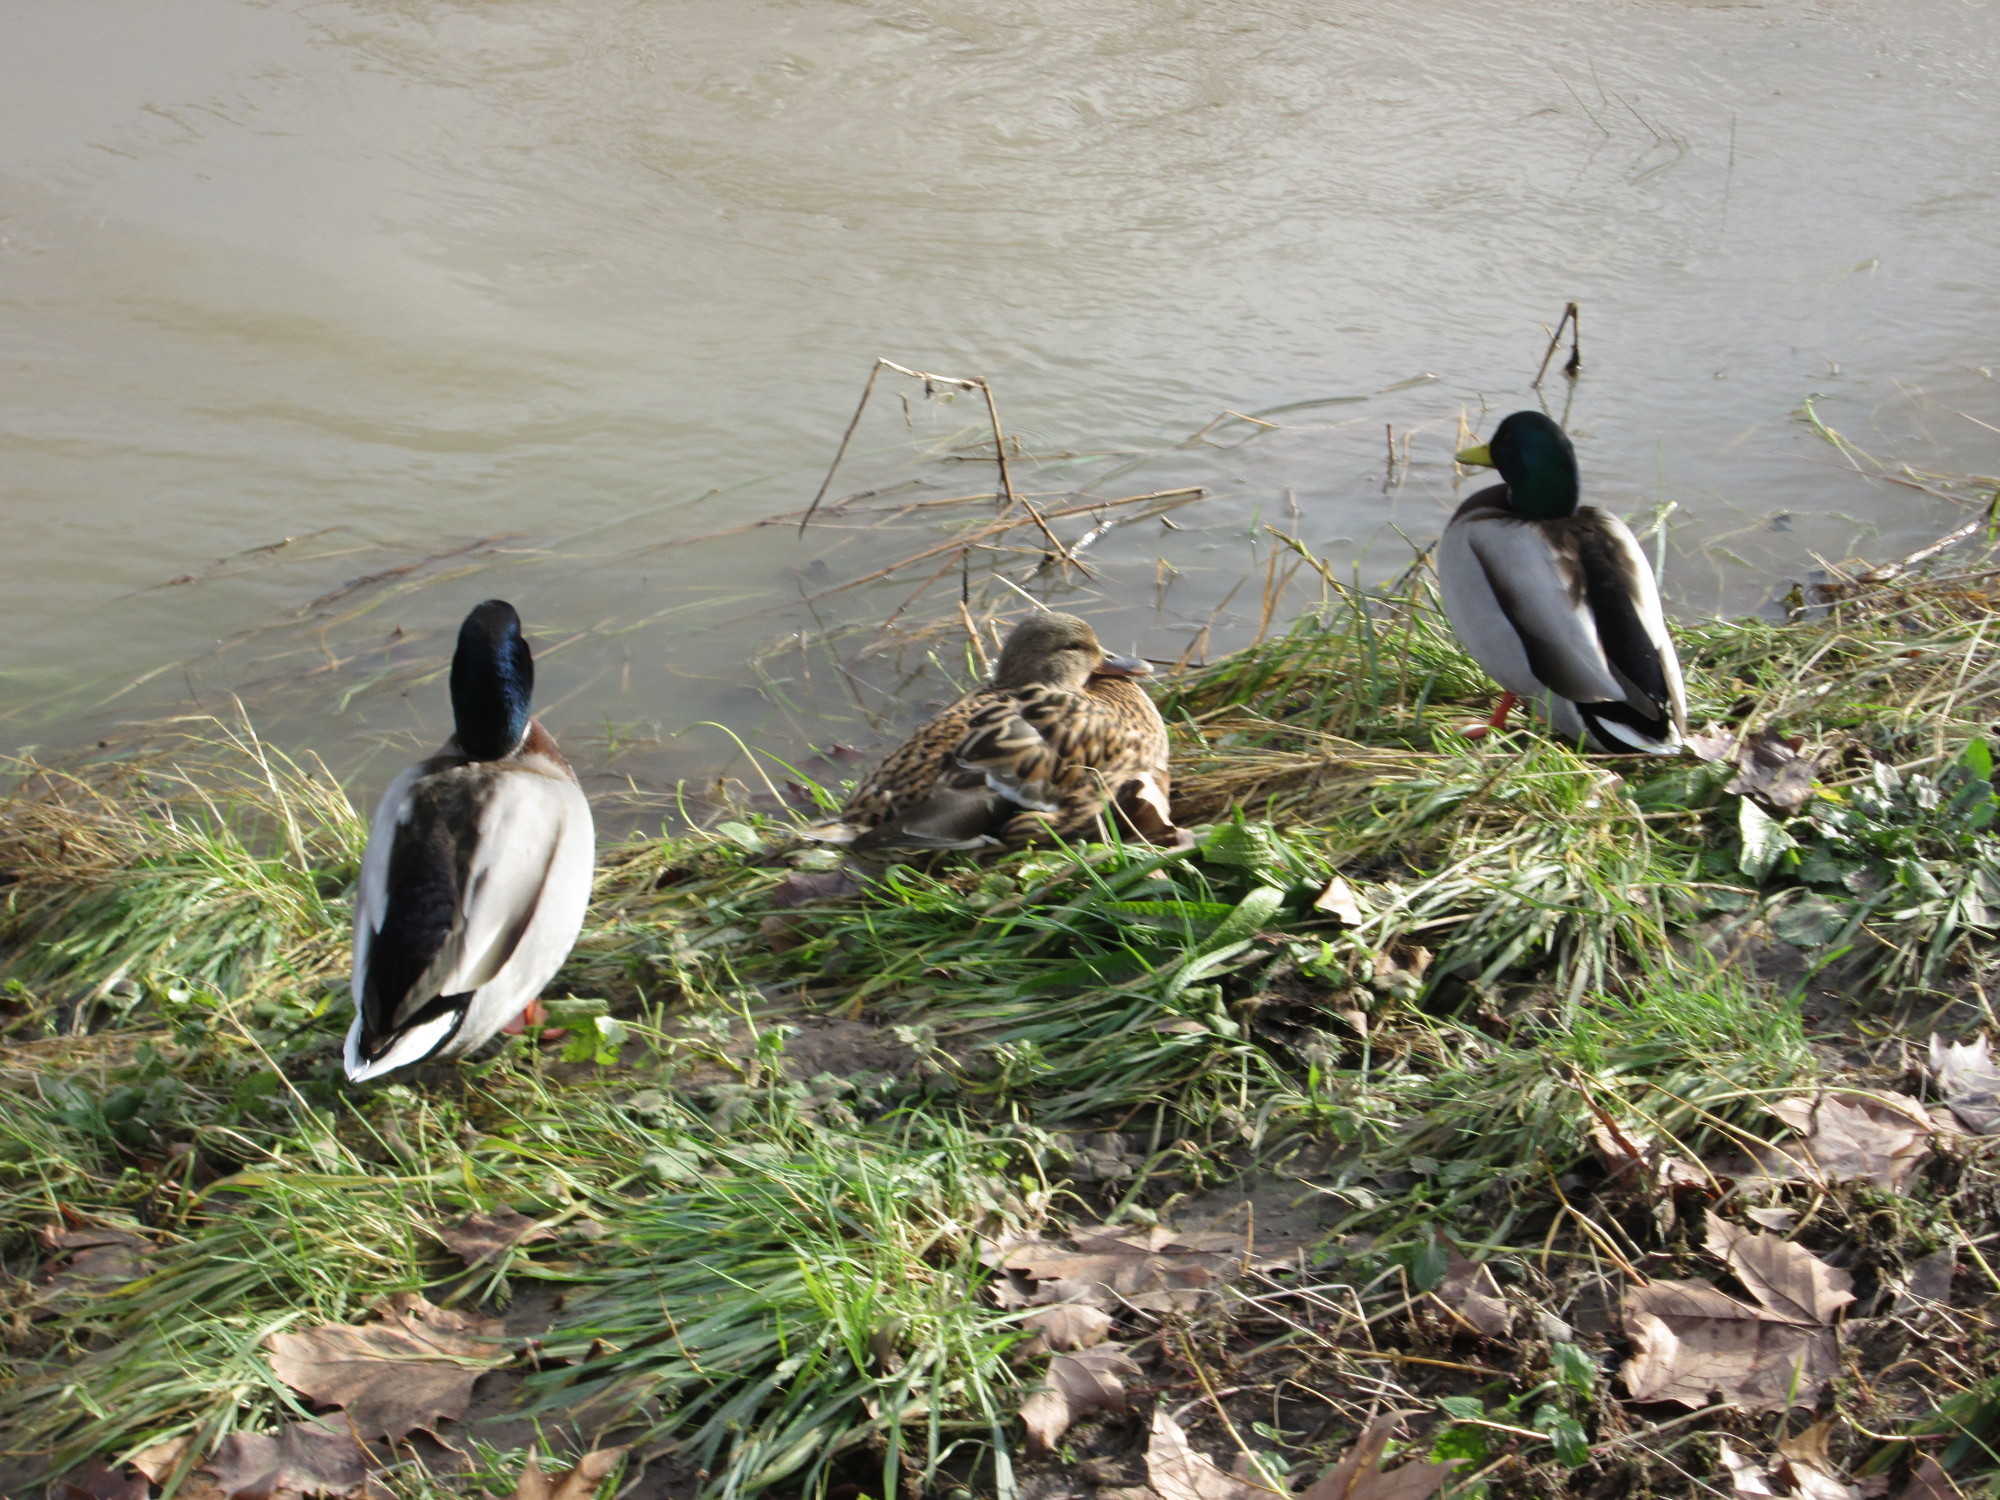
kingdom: Animalia
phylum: Chordata
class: Aves
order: Anseriformes
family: Anatidae
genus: Anas
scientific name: Anas platyrhynchos
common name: Mallard
